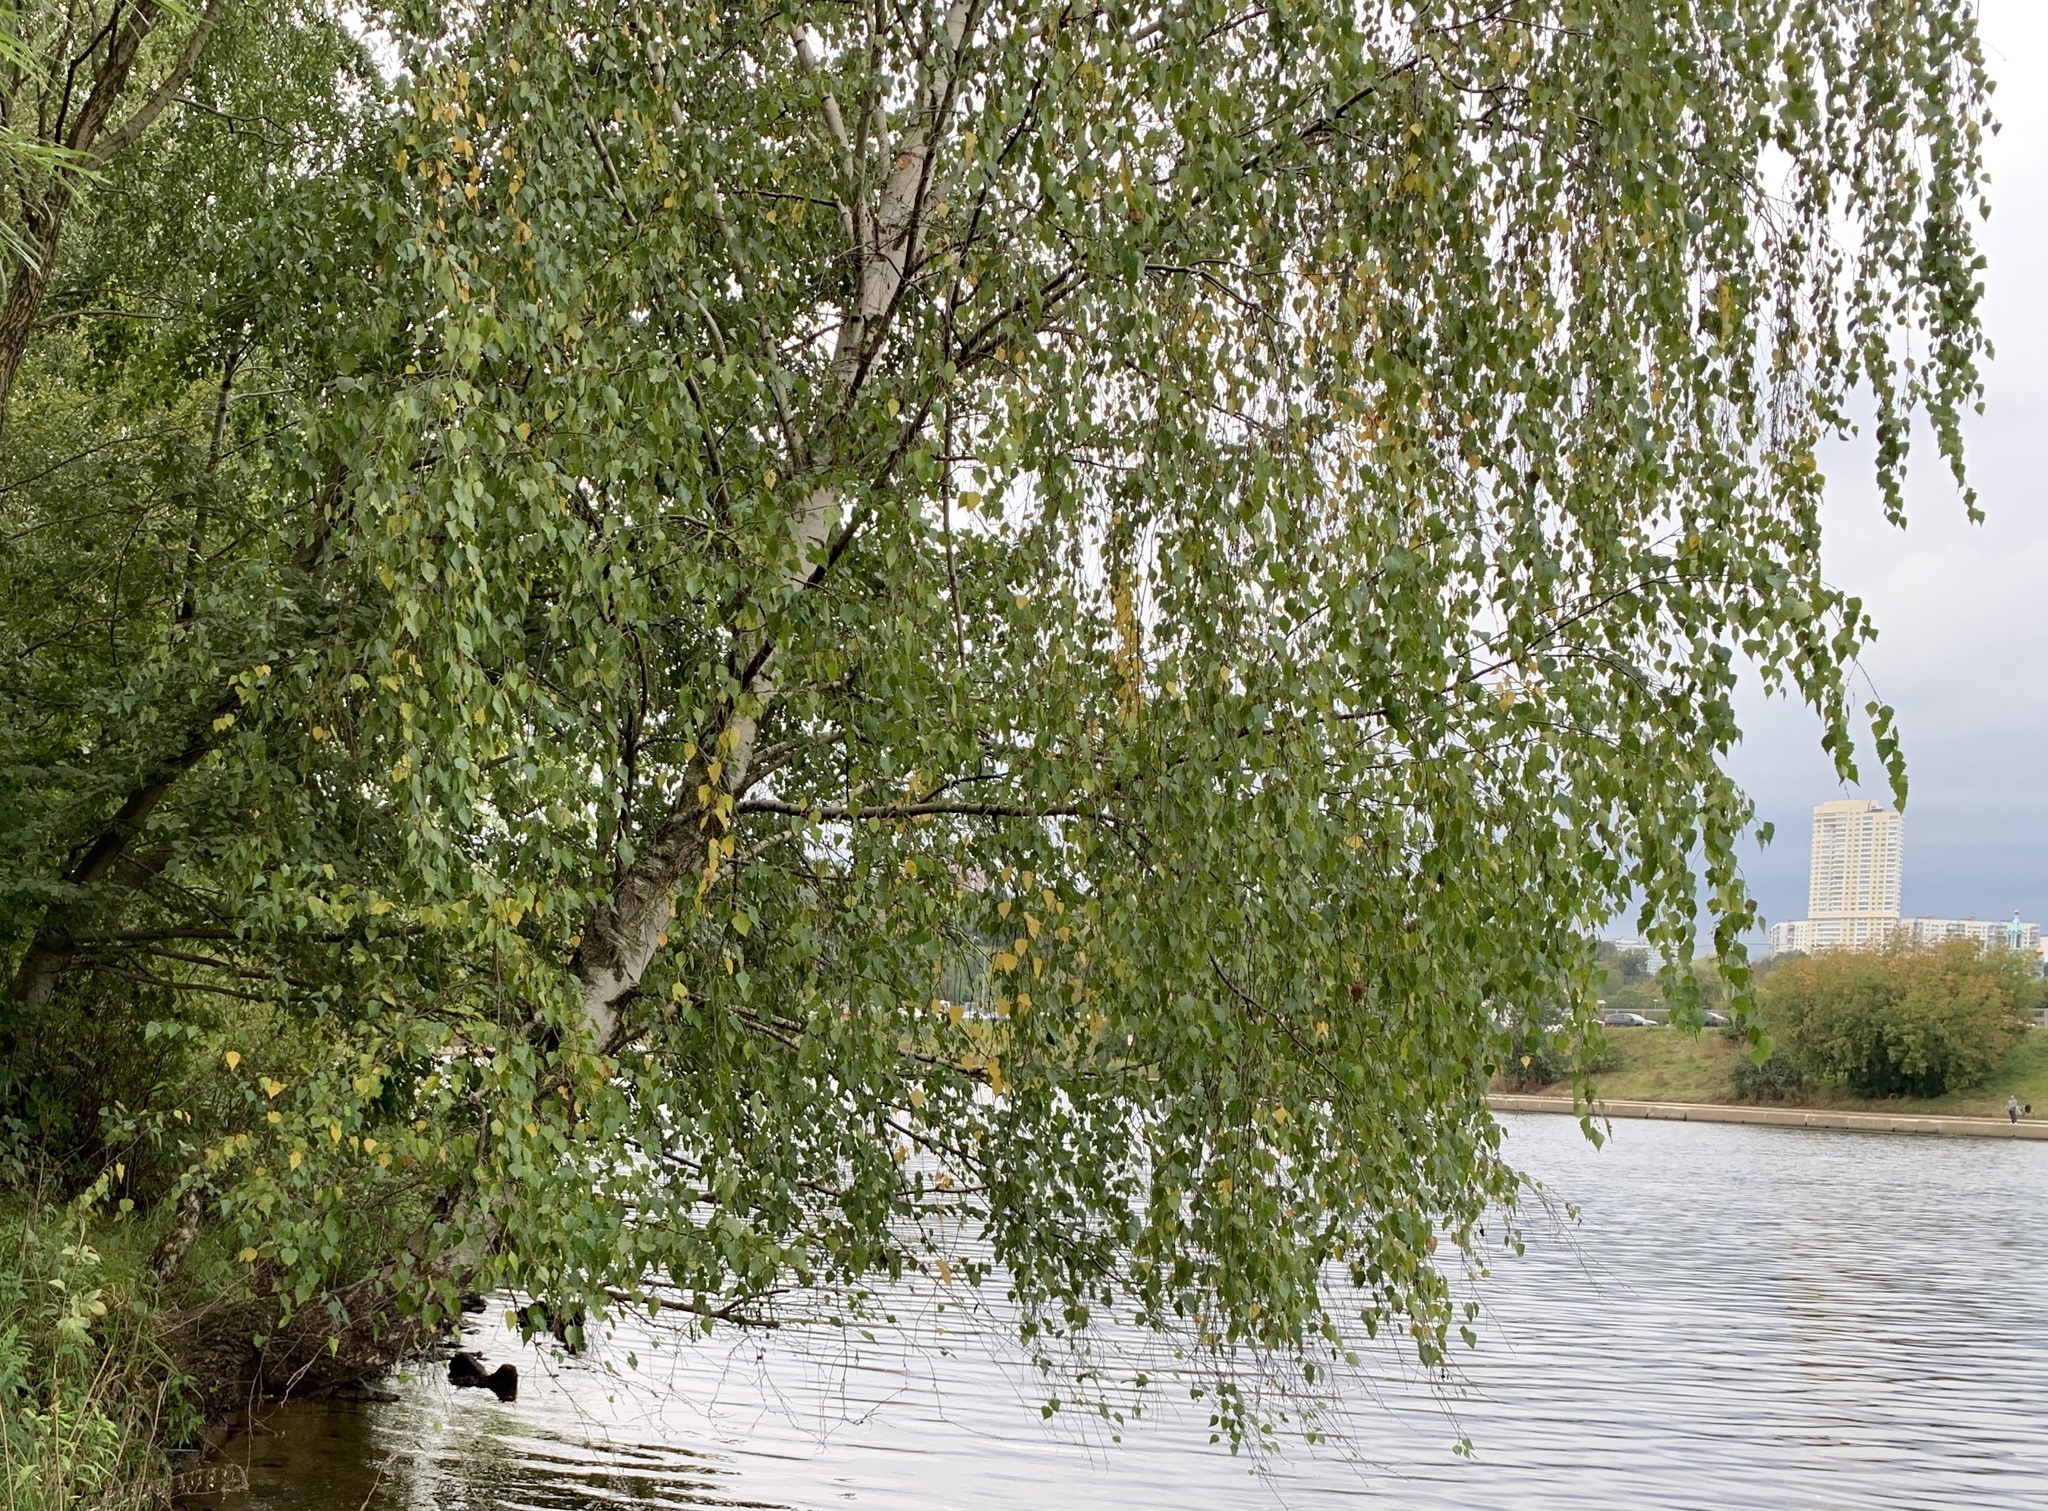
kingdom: Plantae
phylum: Tracheophyta
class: Magnoliopsida
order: Fagales
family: Betulaceae
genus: Betula
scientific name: Betula pendula
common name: Silver birch
